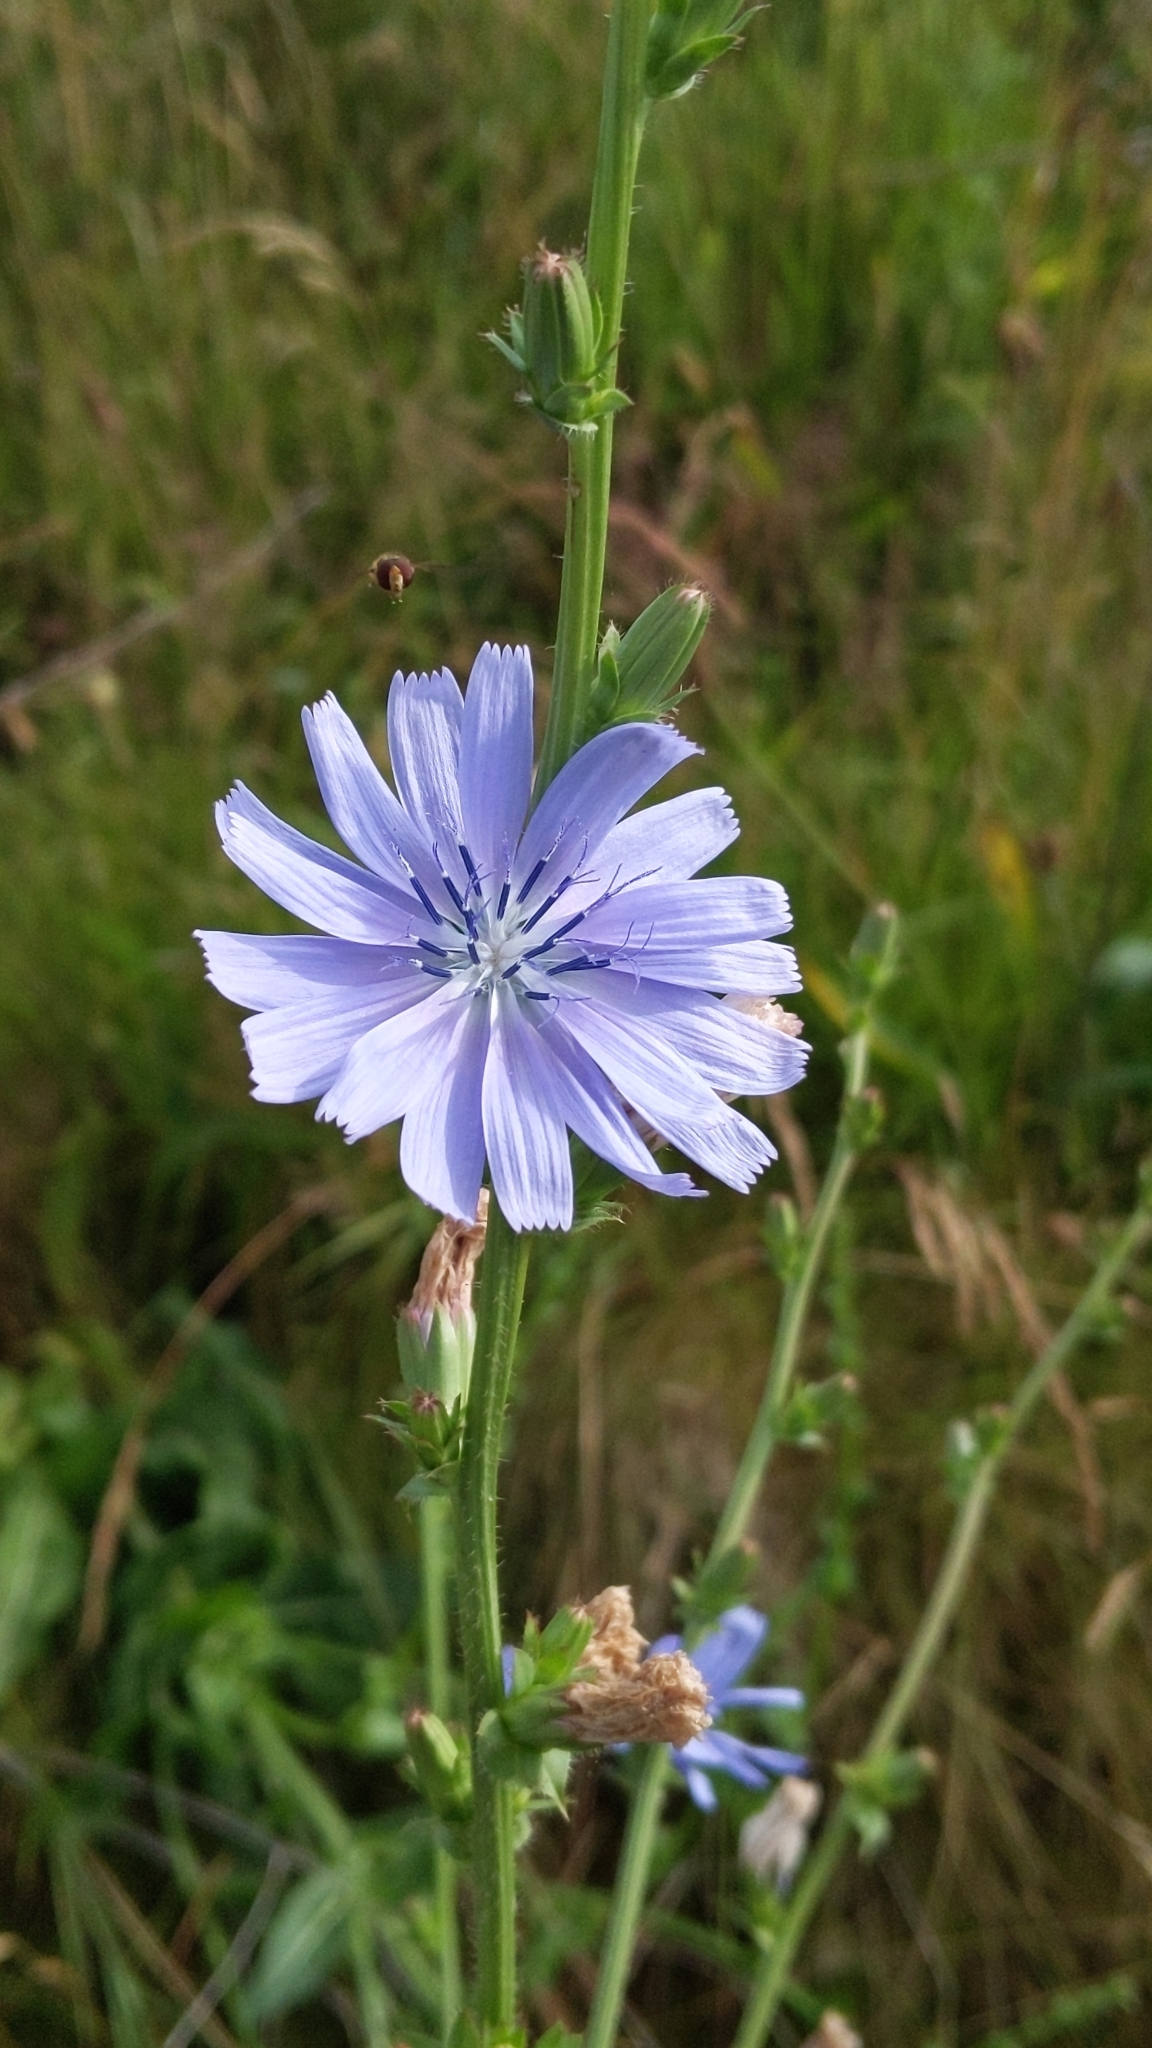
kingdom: Plantae
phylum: Tracheophyta
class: Magnoliopsida
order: Asterales
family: Asteraceae
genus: Cichorium
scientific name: Cichorium intybus
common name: Chicory
